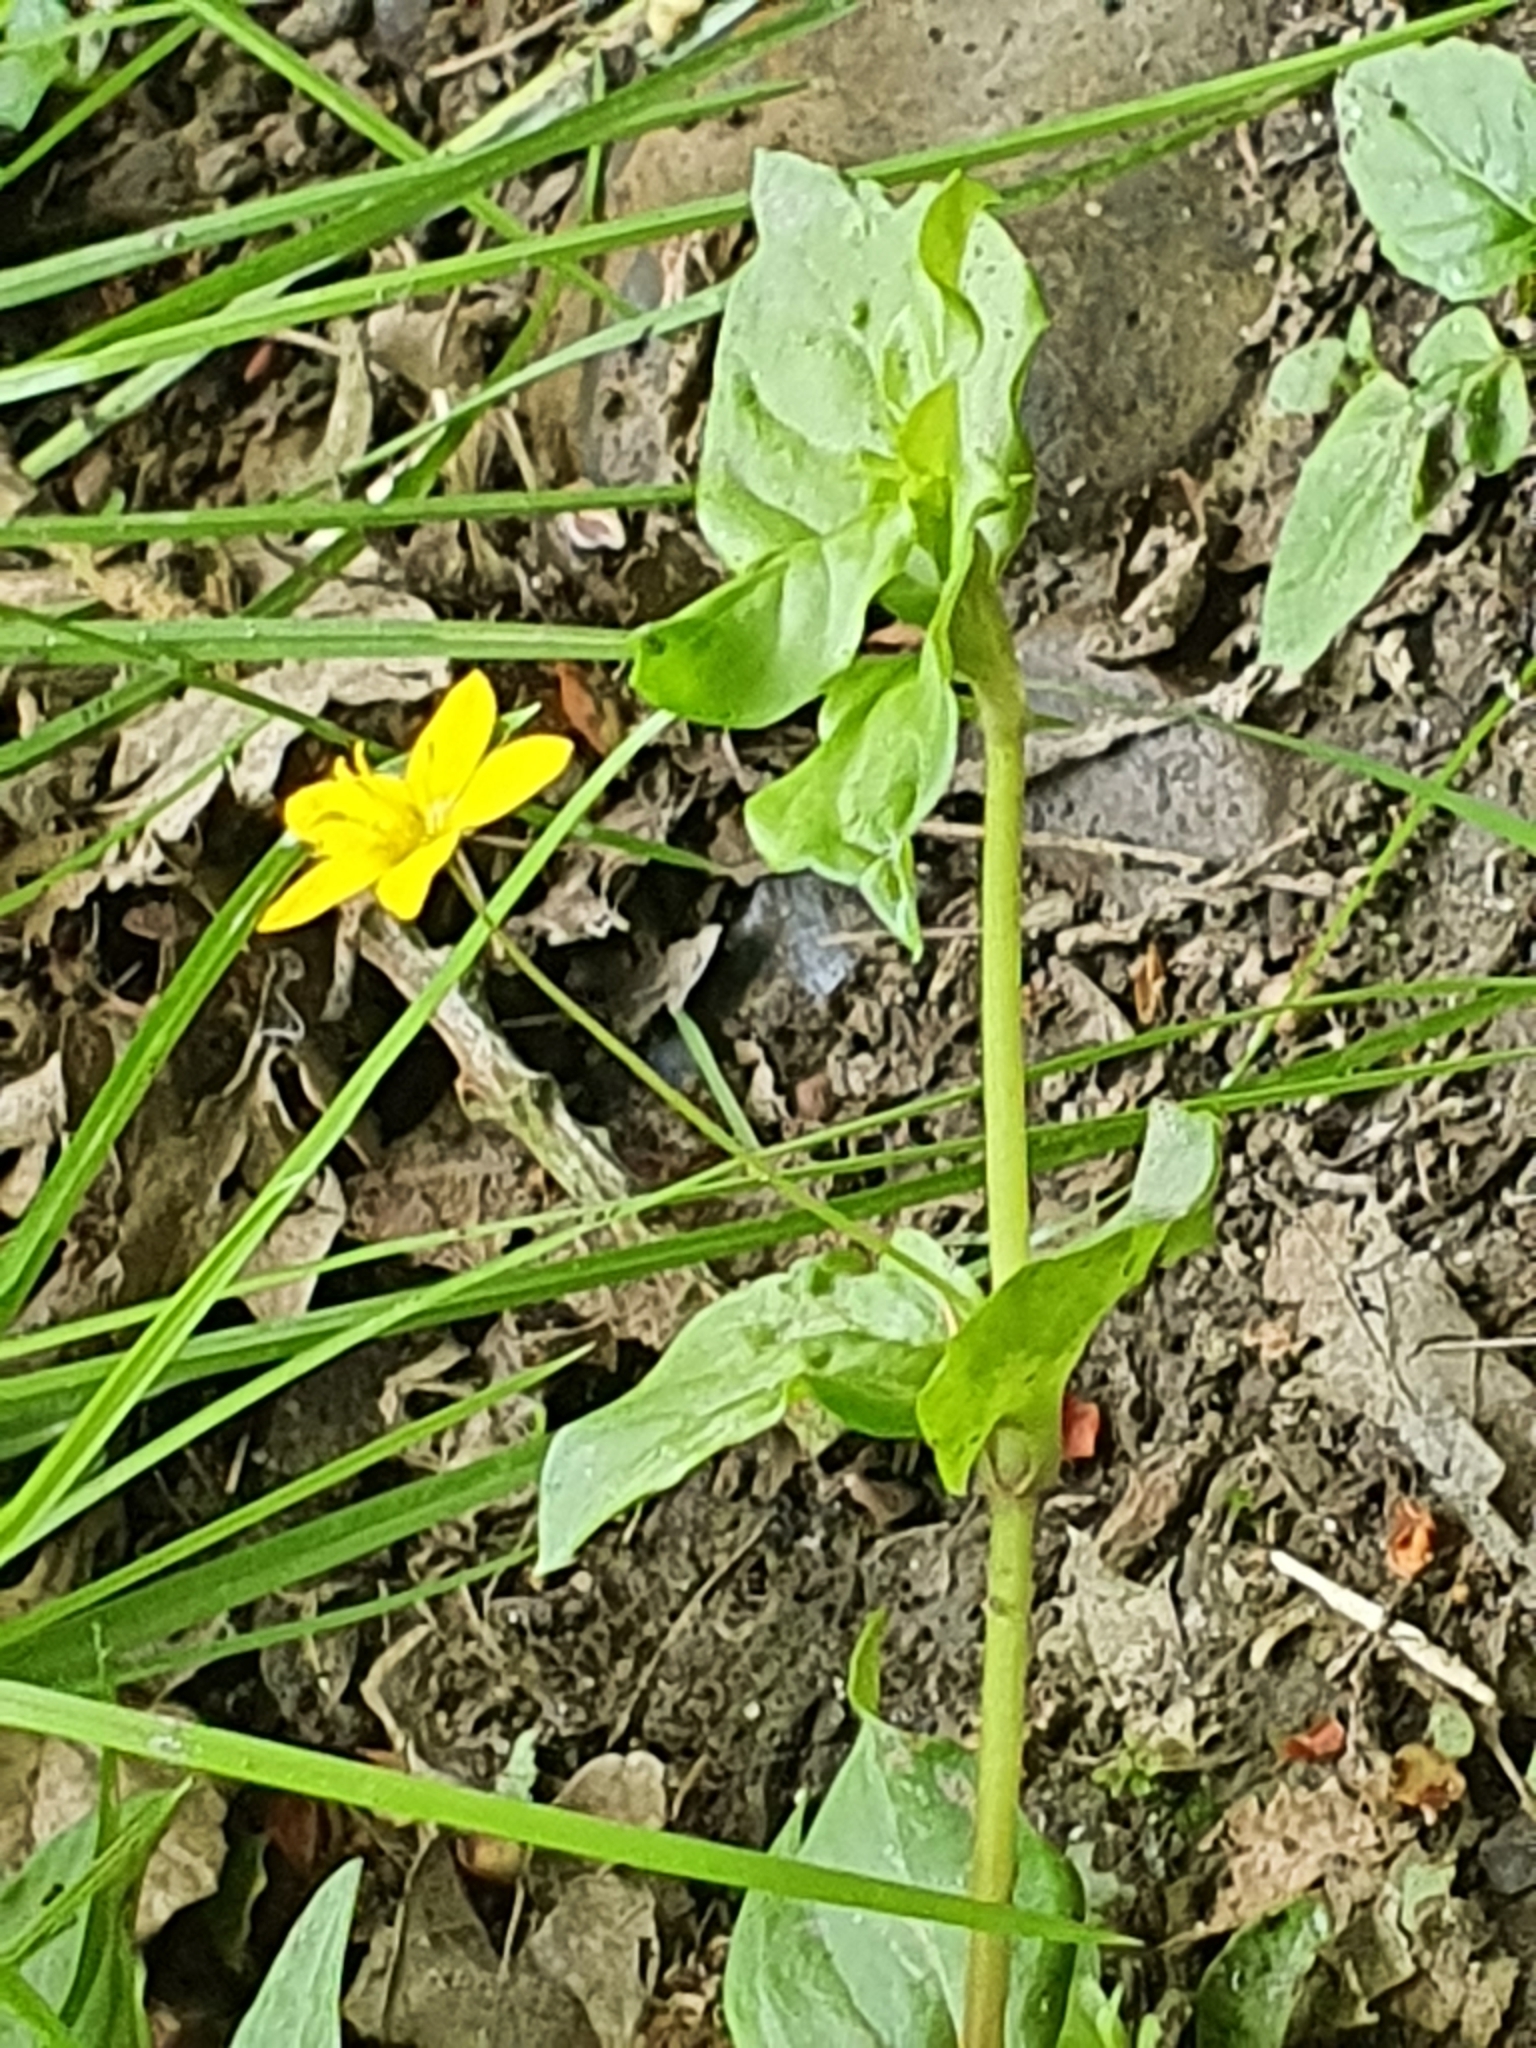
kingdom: Plantae
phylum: Tracheophyta
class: Magnoliopsida
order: Ericales
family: Primulaceae
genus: Lysimachia
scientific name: Lysimachia nemorum
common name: Yellow pimpernel
